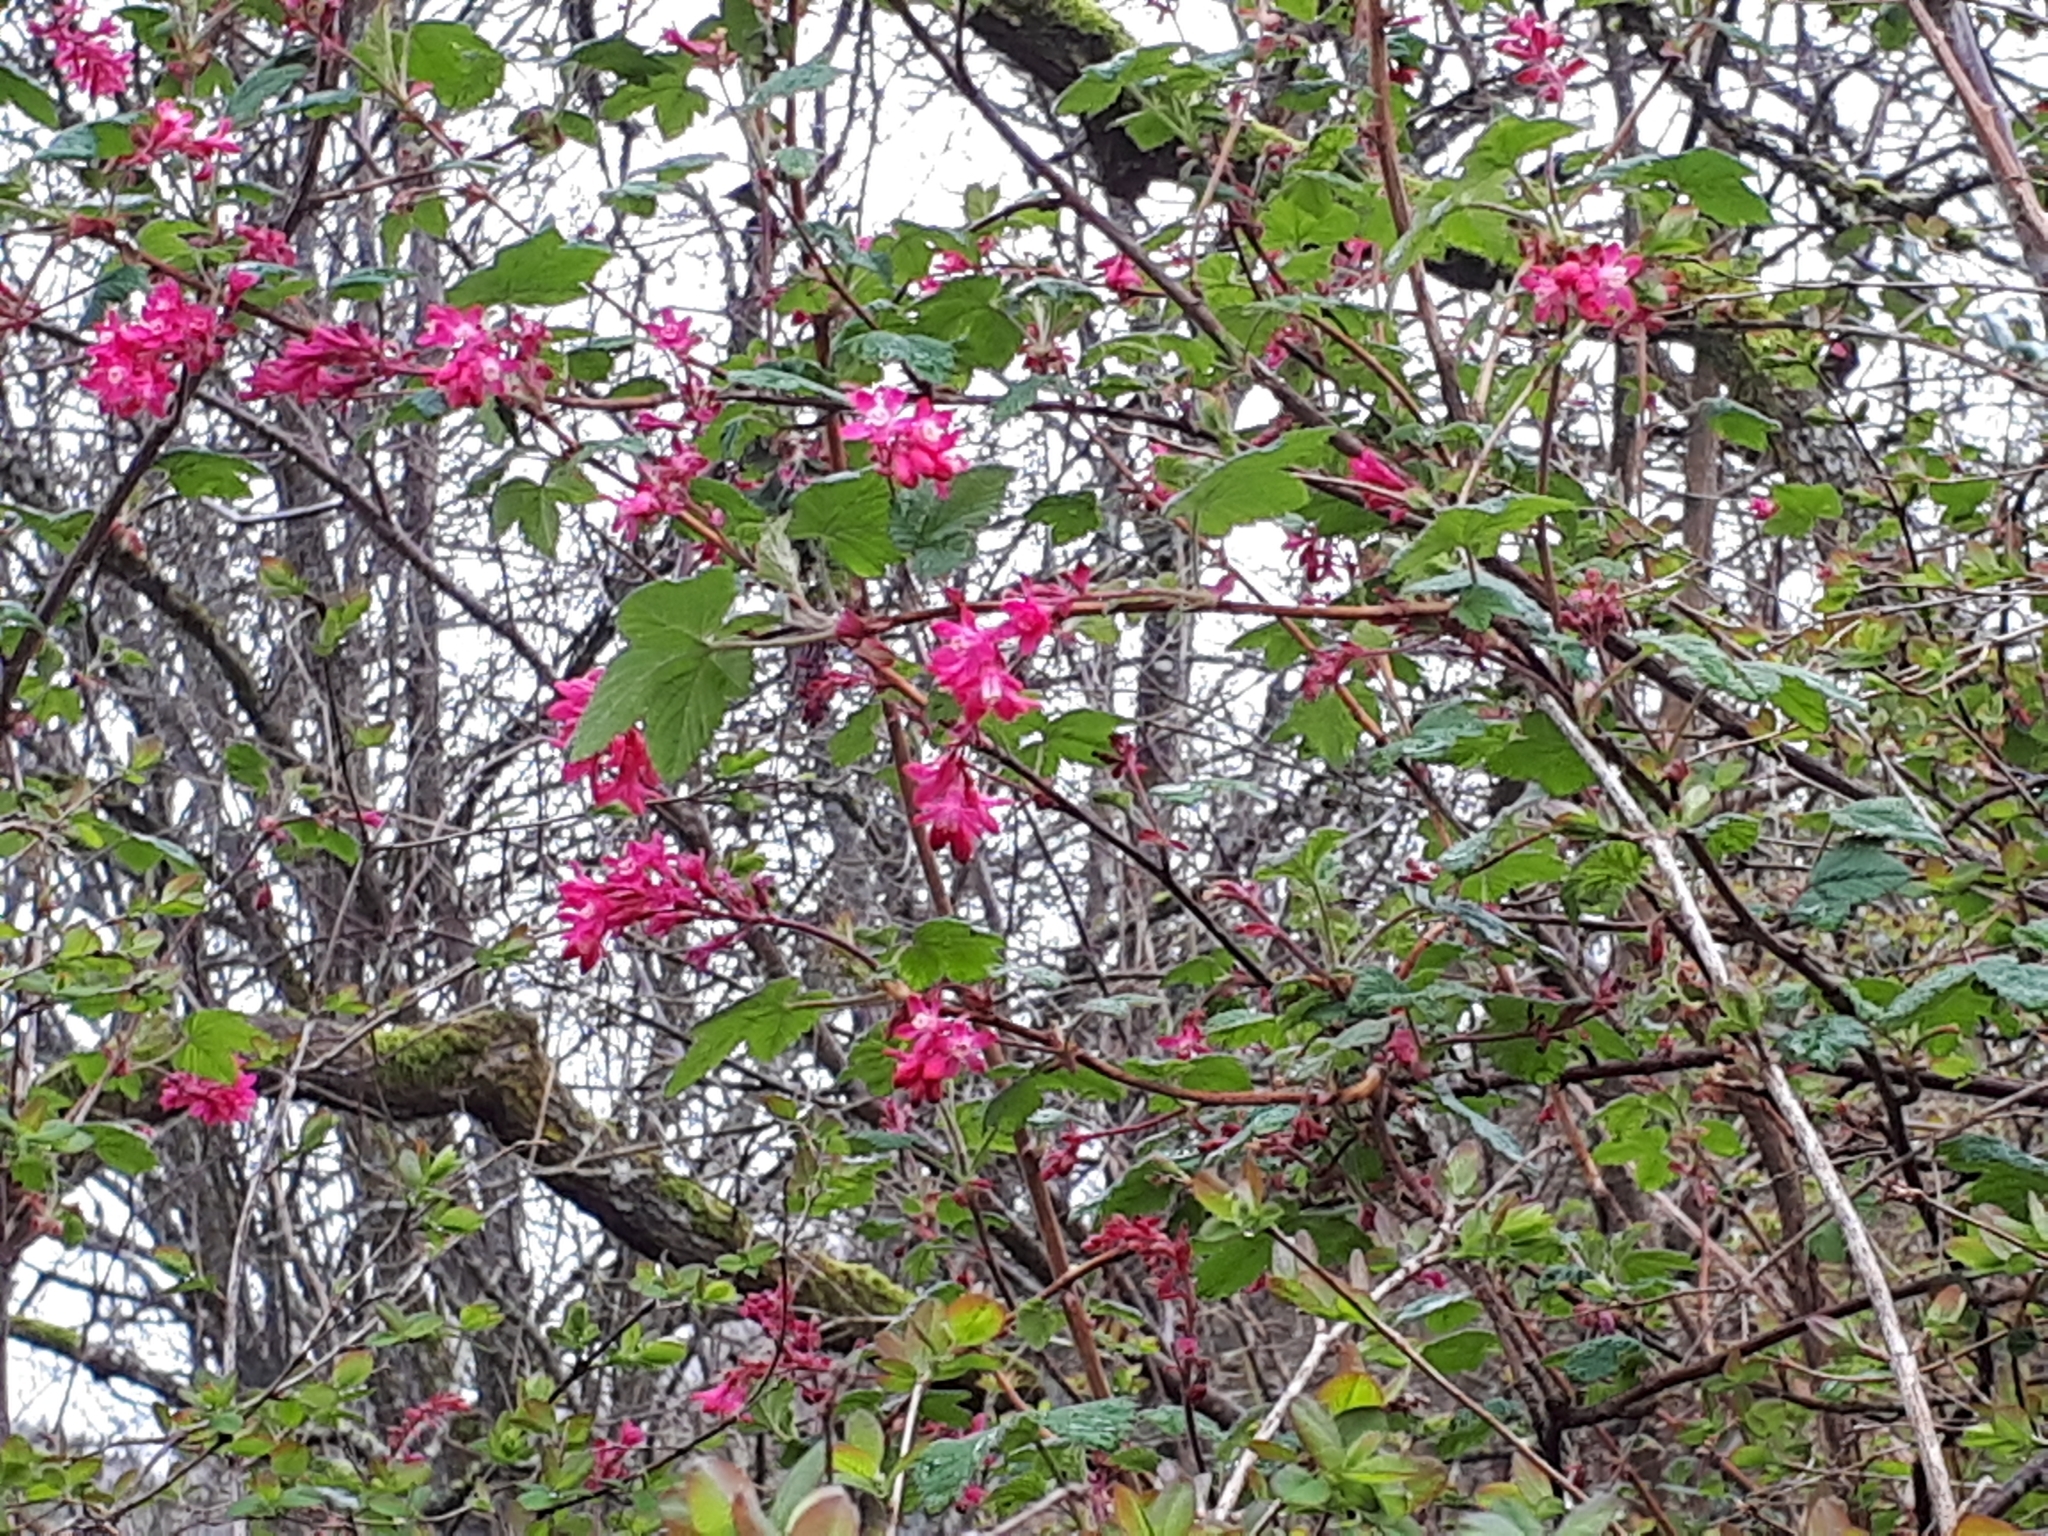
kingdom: Plantae
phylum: Tracheophyta
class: Magnoliopsida
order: Saxifragales
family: Grossulariaceae
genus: Ribes
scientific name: Ribes sanguineum
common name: Flowering currant
